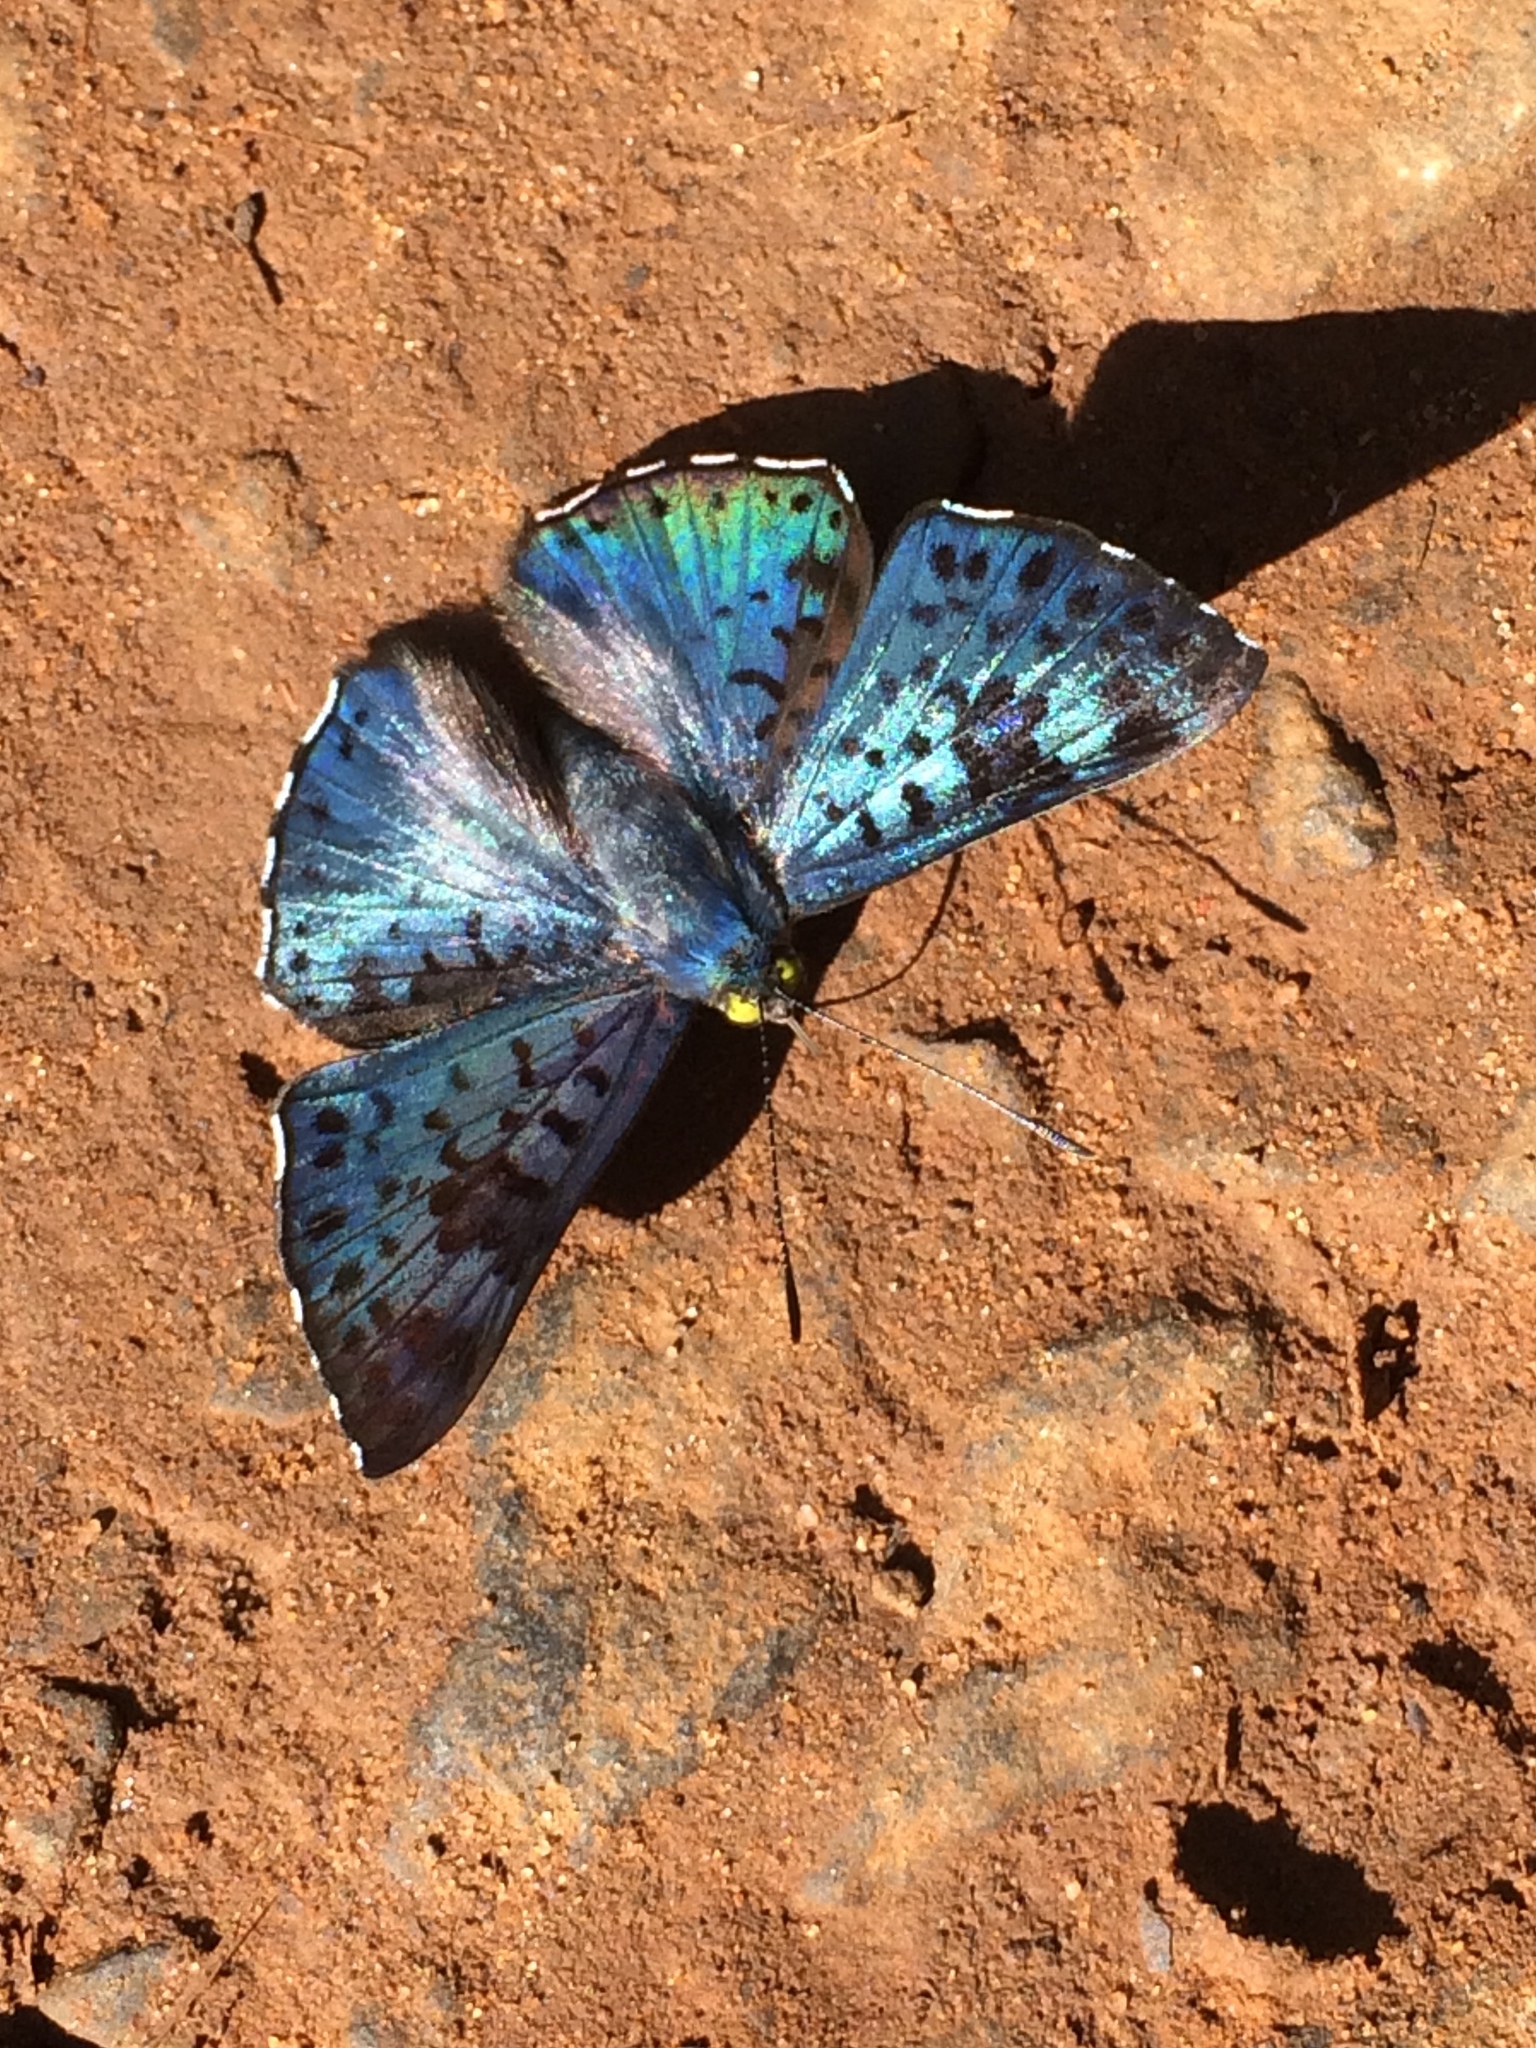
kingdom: Animalia
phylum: Arthropoda
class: Insecta
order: Lepidoptera
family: Riodinidae
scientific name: Riodinidae
